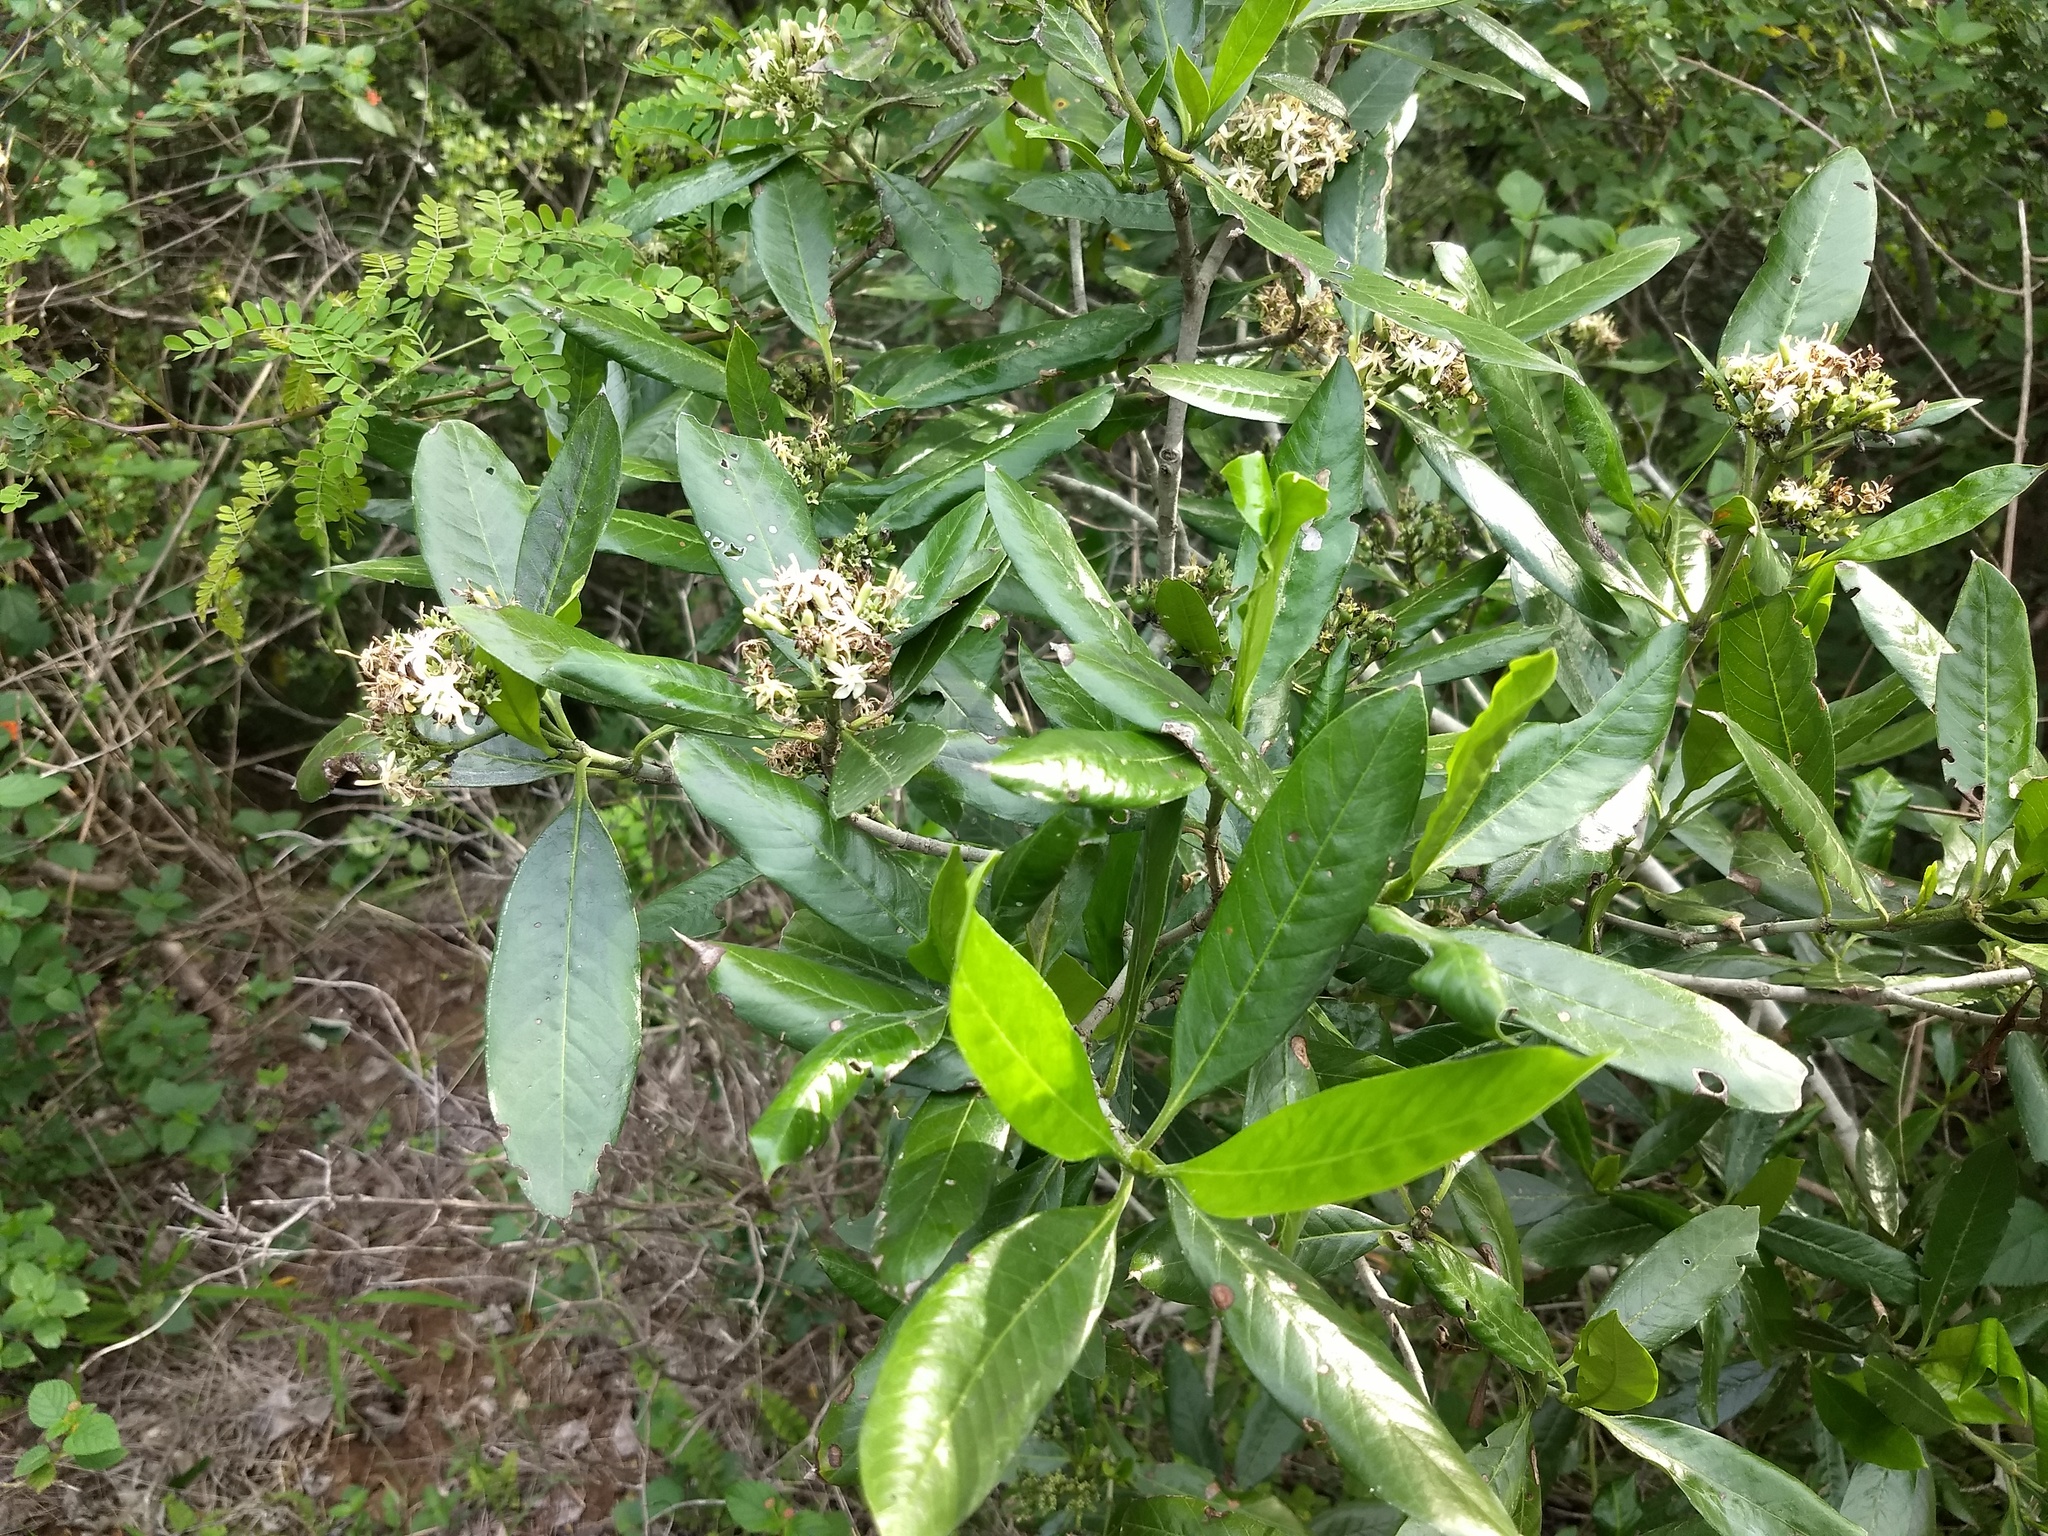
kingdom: Plantae
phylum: Tracheophyta
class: Magnoliopsida
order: Gentianales
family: Rubiaceae
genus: Tarenna
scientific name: Tarenna asiatica
